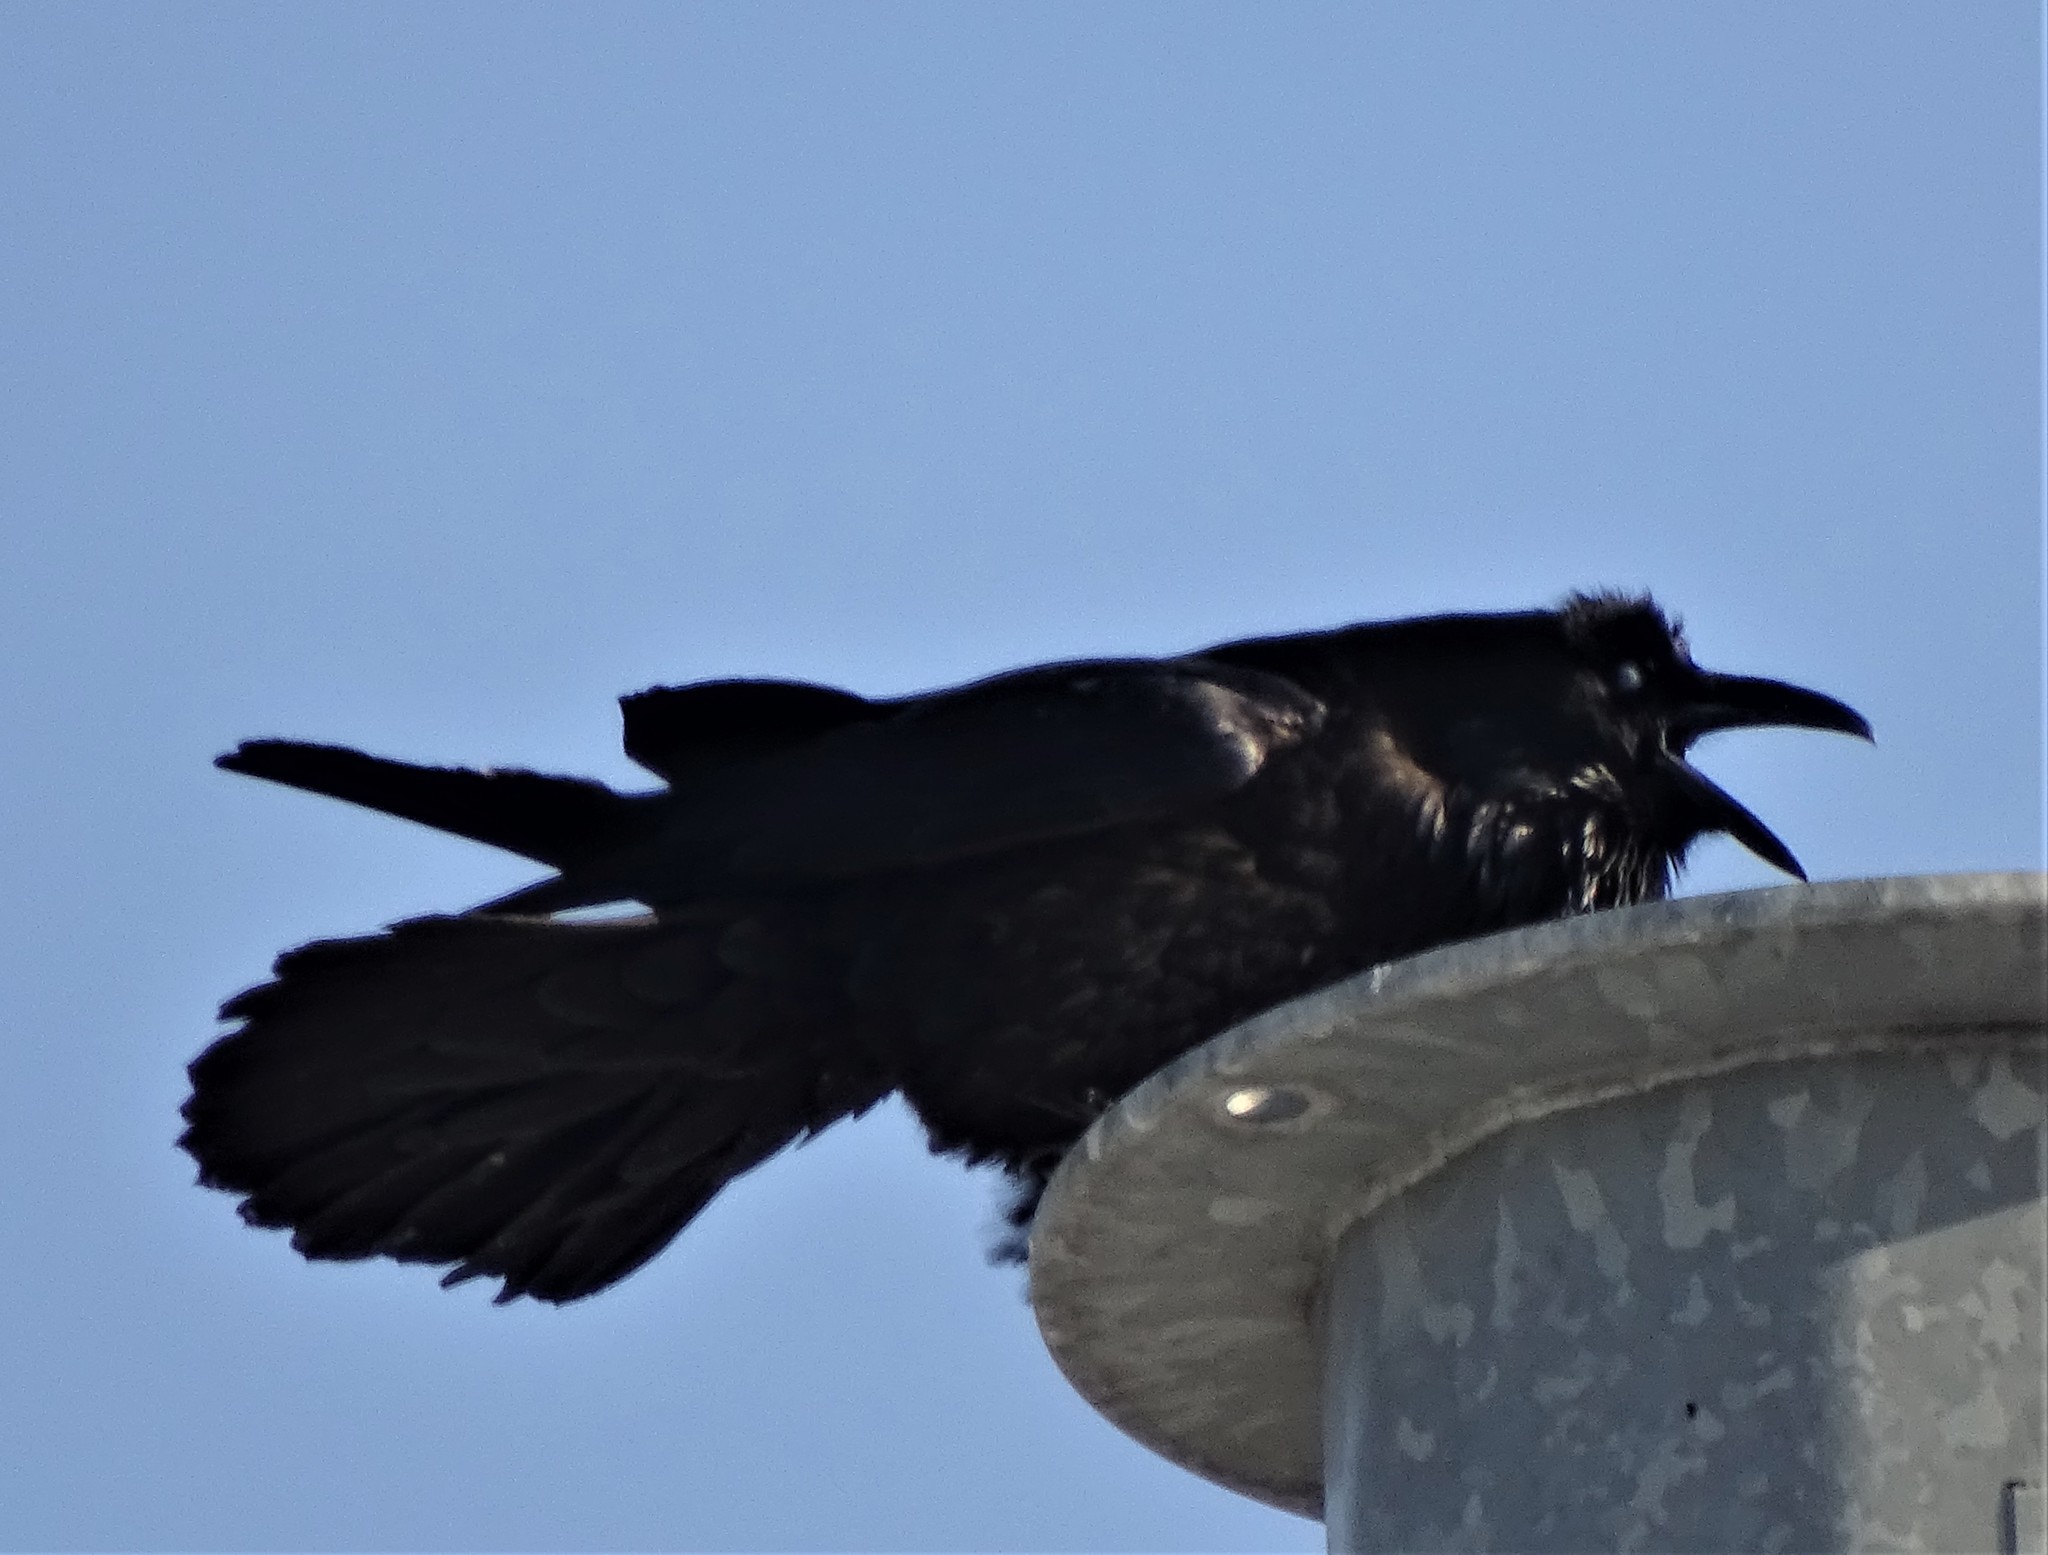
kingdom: Animalia
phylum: Chordata
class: Aves
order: Passeriformes
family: Corvidae
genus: Corvus
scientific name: Corvus corax
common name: Common raven
